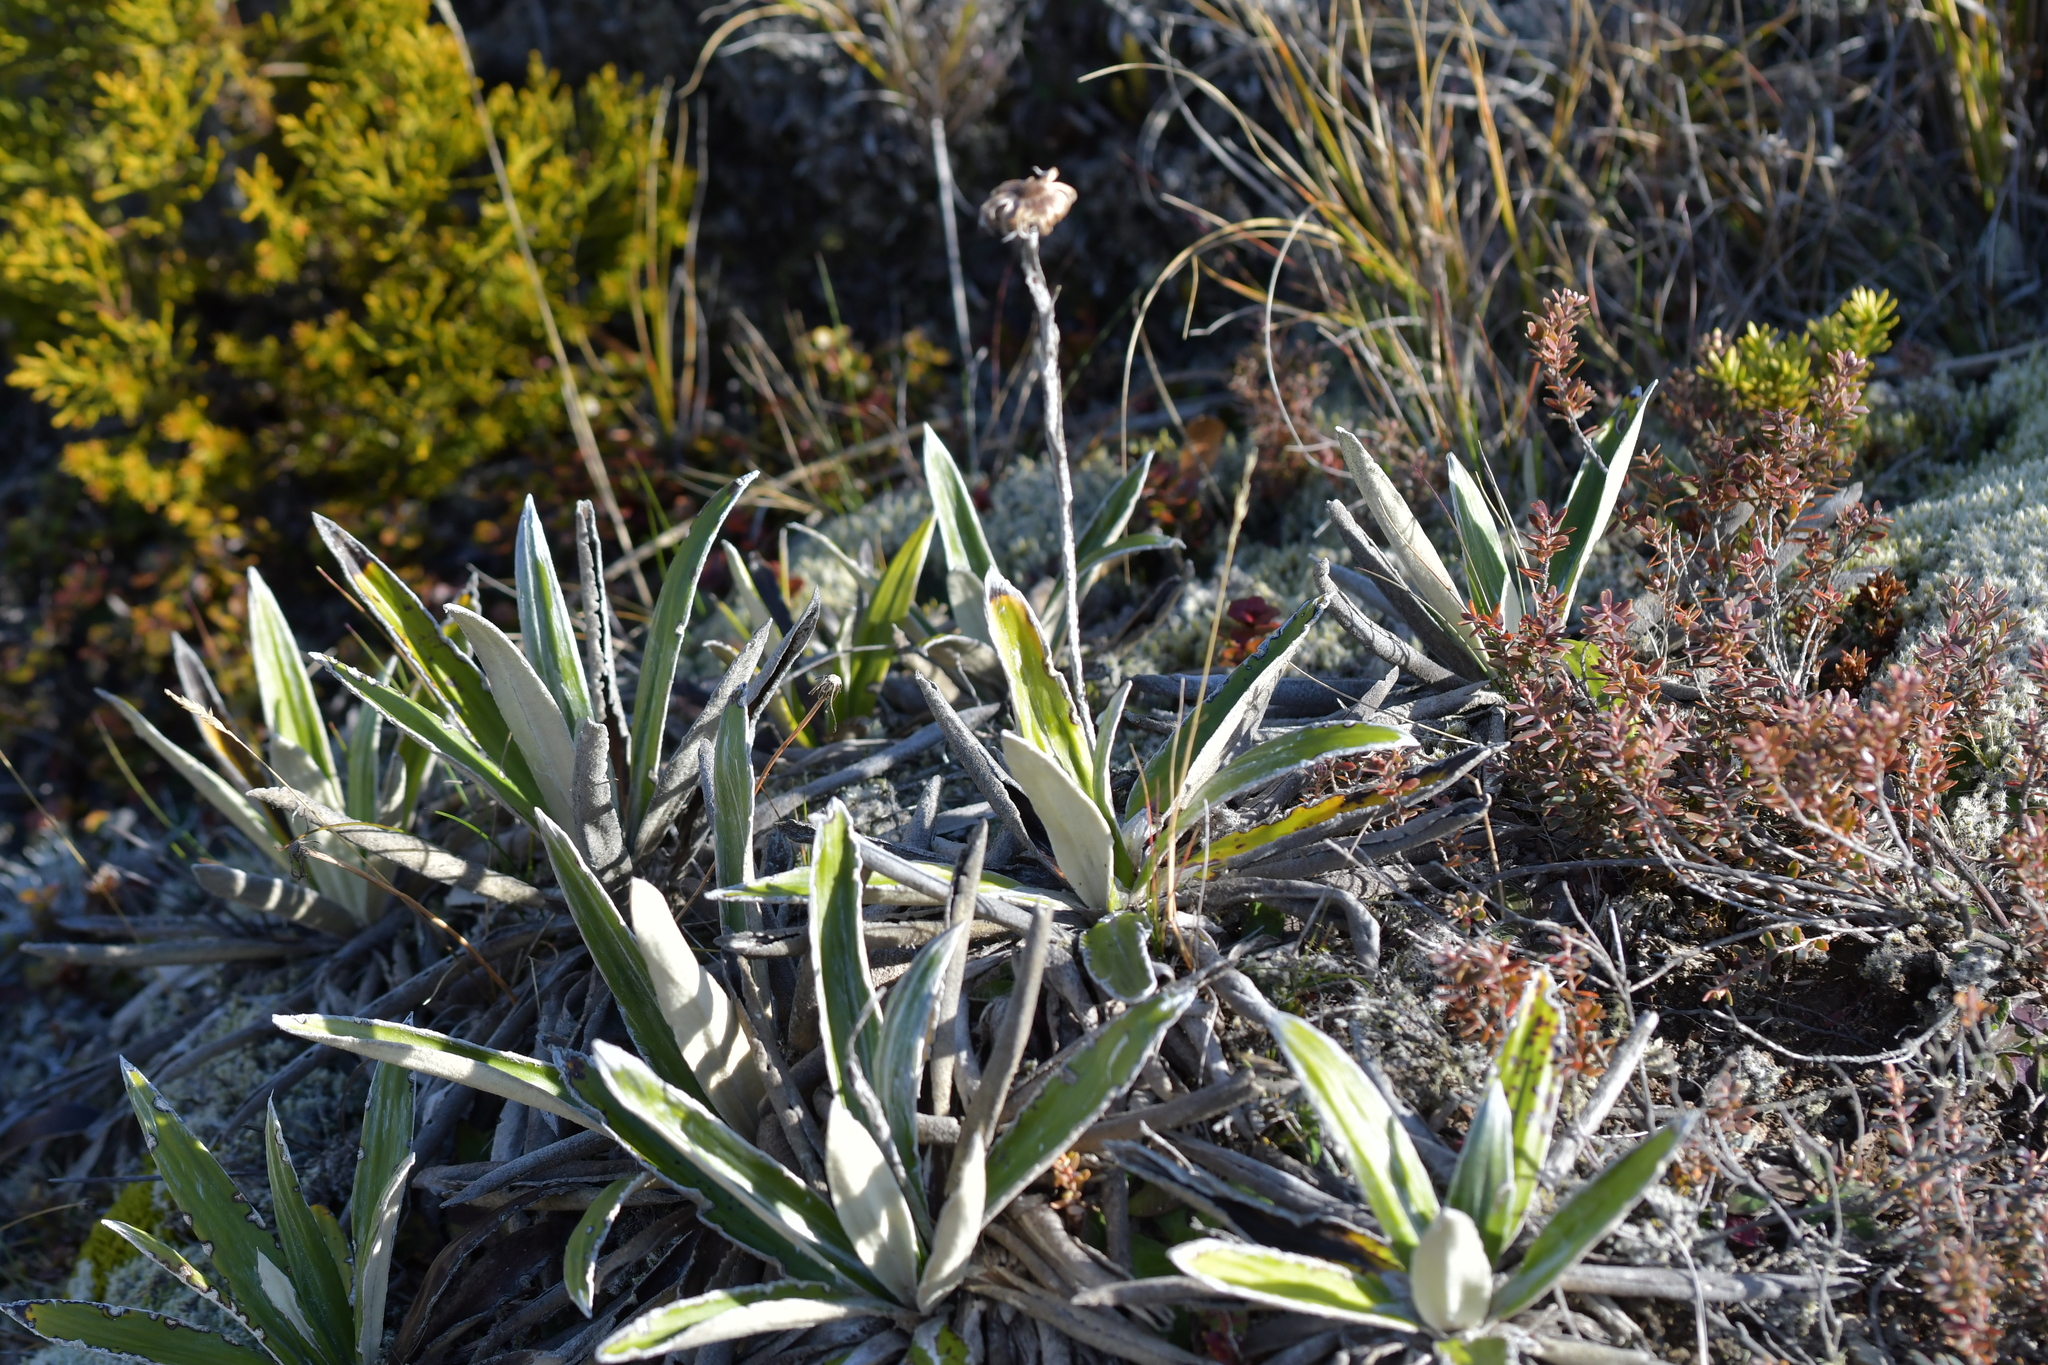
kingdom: Plantae
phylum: Tracheophyta
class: Magnoliopsida
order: Asterales
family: Asteraceae
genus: Celmisia
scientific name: Celmisia spectabilis
